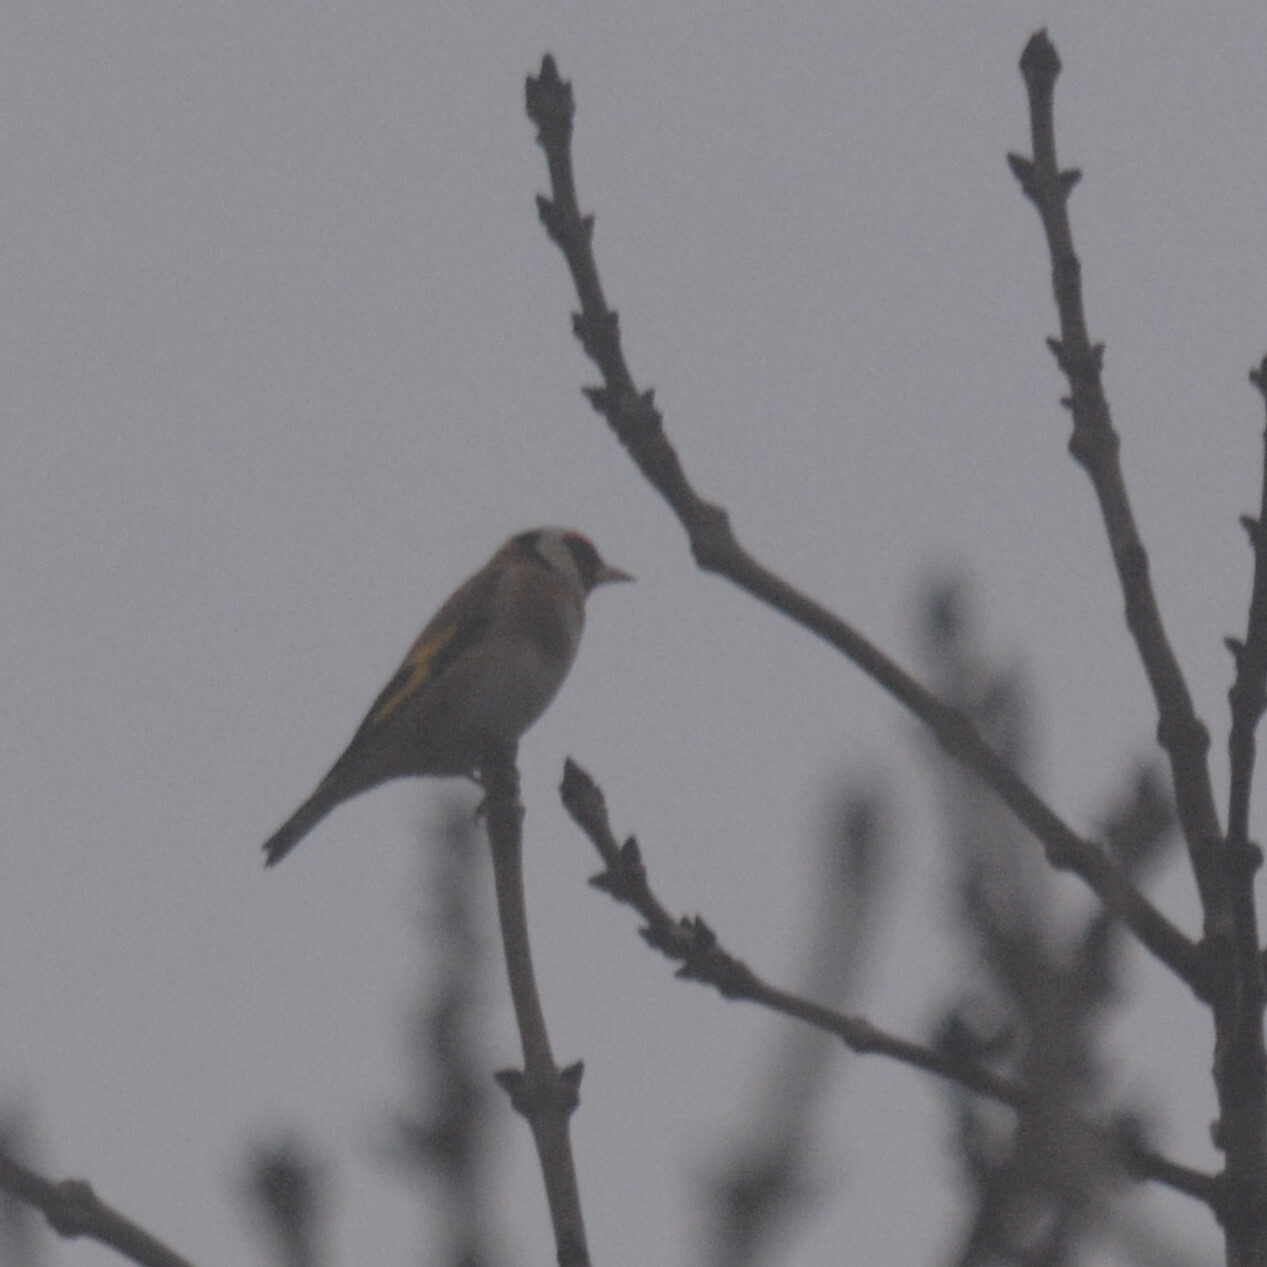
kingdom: Animalia
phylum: Chordata
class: Aves
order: Passeriformes
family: Fringillidae
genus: Carduelis
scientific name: Carduelis carduelis
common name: European goldfinch
